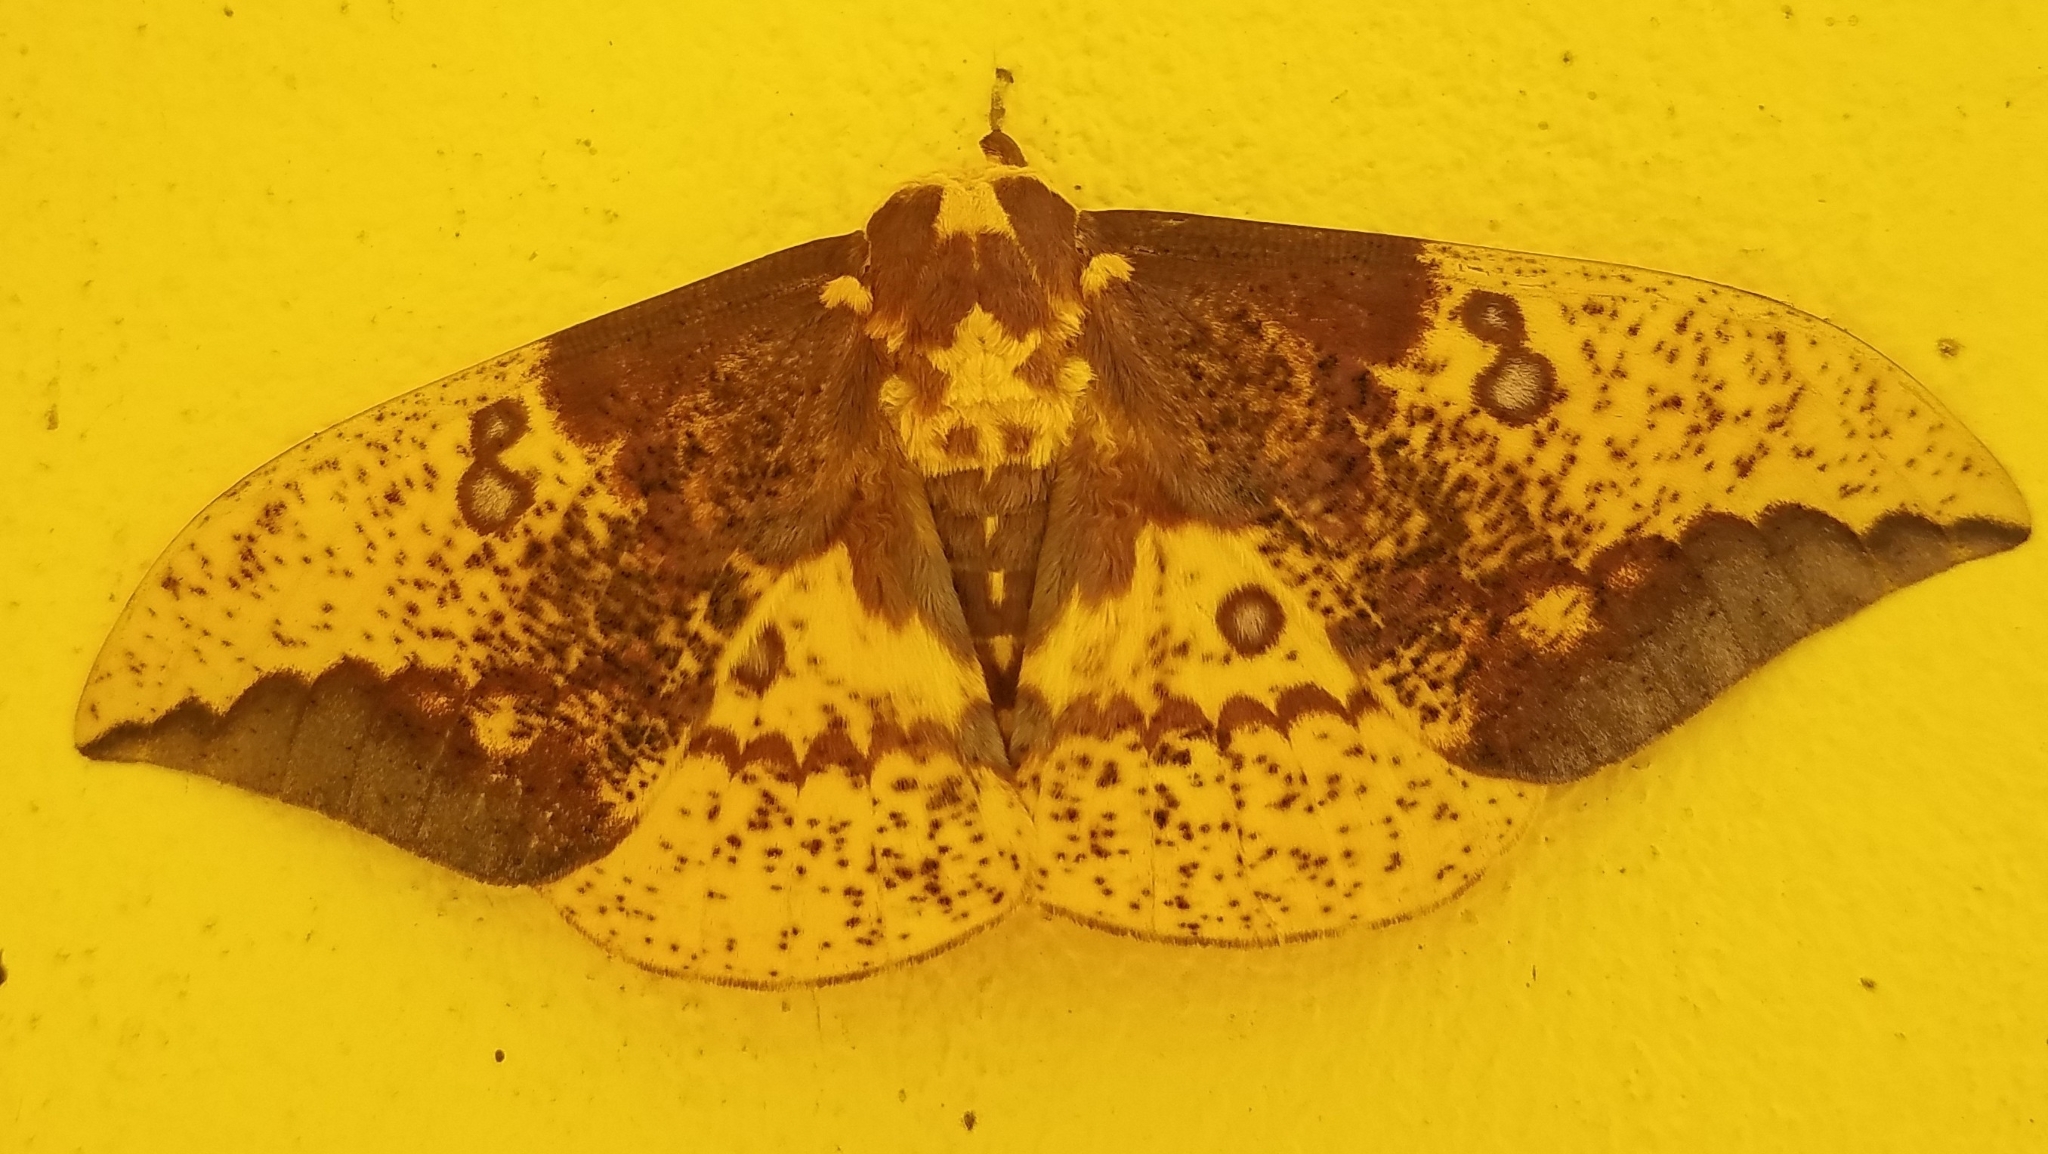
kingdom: Animalia
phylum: Arthropoda
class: Insecta
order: Lepidoptera
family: Saturniidae
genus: Eacles
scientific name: Eacles imperialis
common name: Imperial moth
